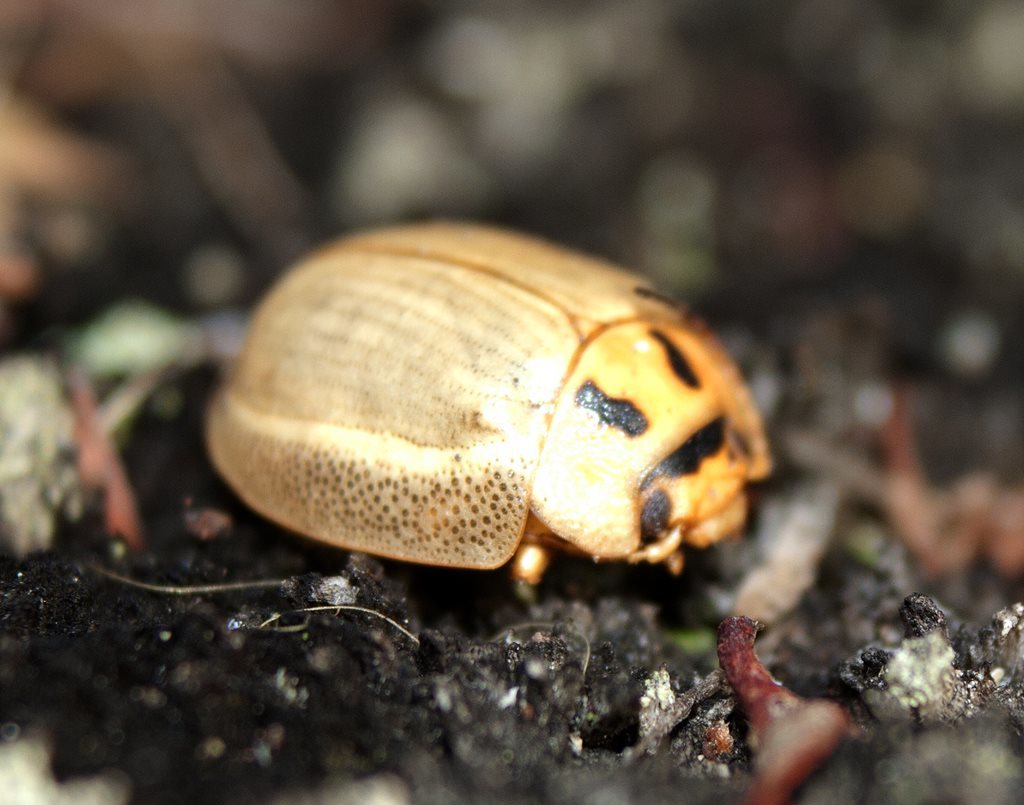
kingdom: Animalia
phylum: Arthropoda
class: Insecta
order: Coleoptera
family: Chrysomelidae
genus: Paropsisterna
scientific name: Paropsisterna bimaculata
